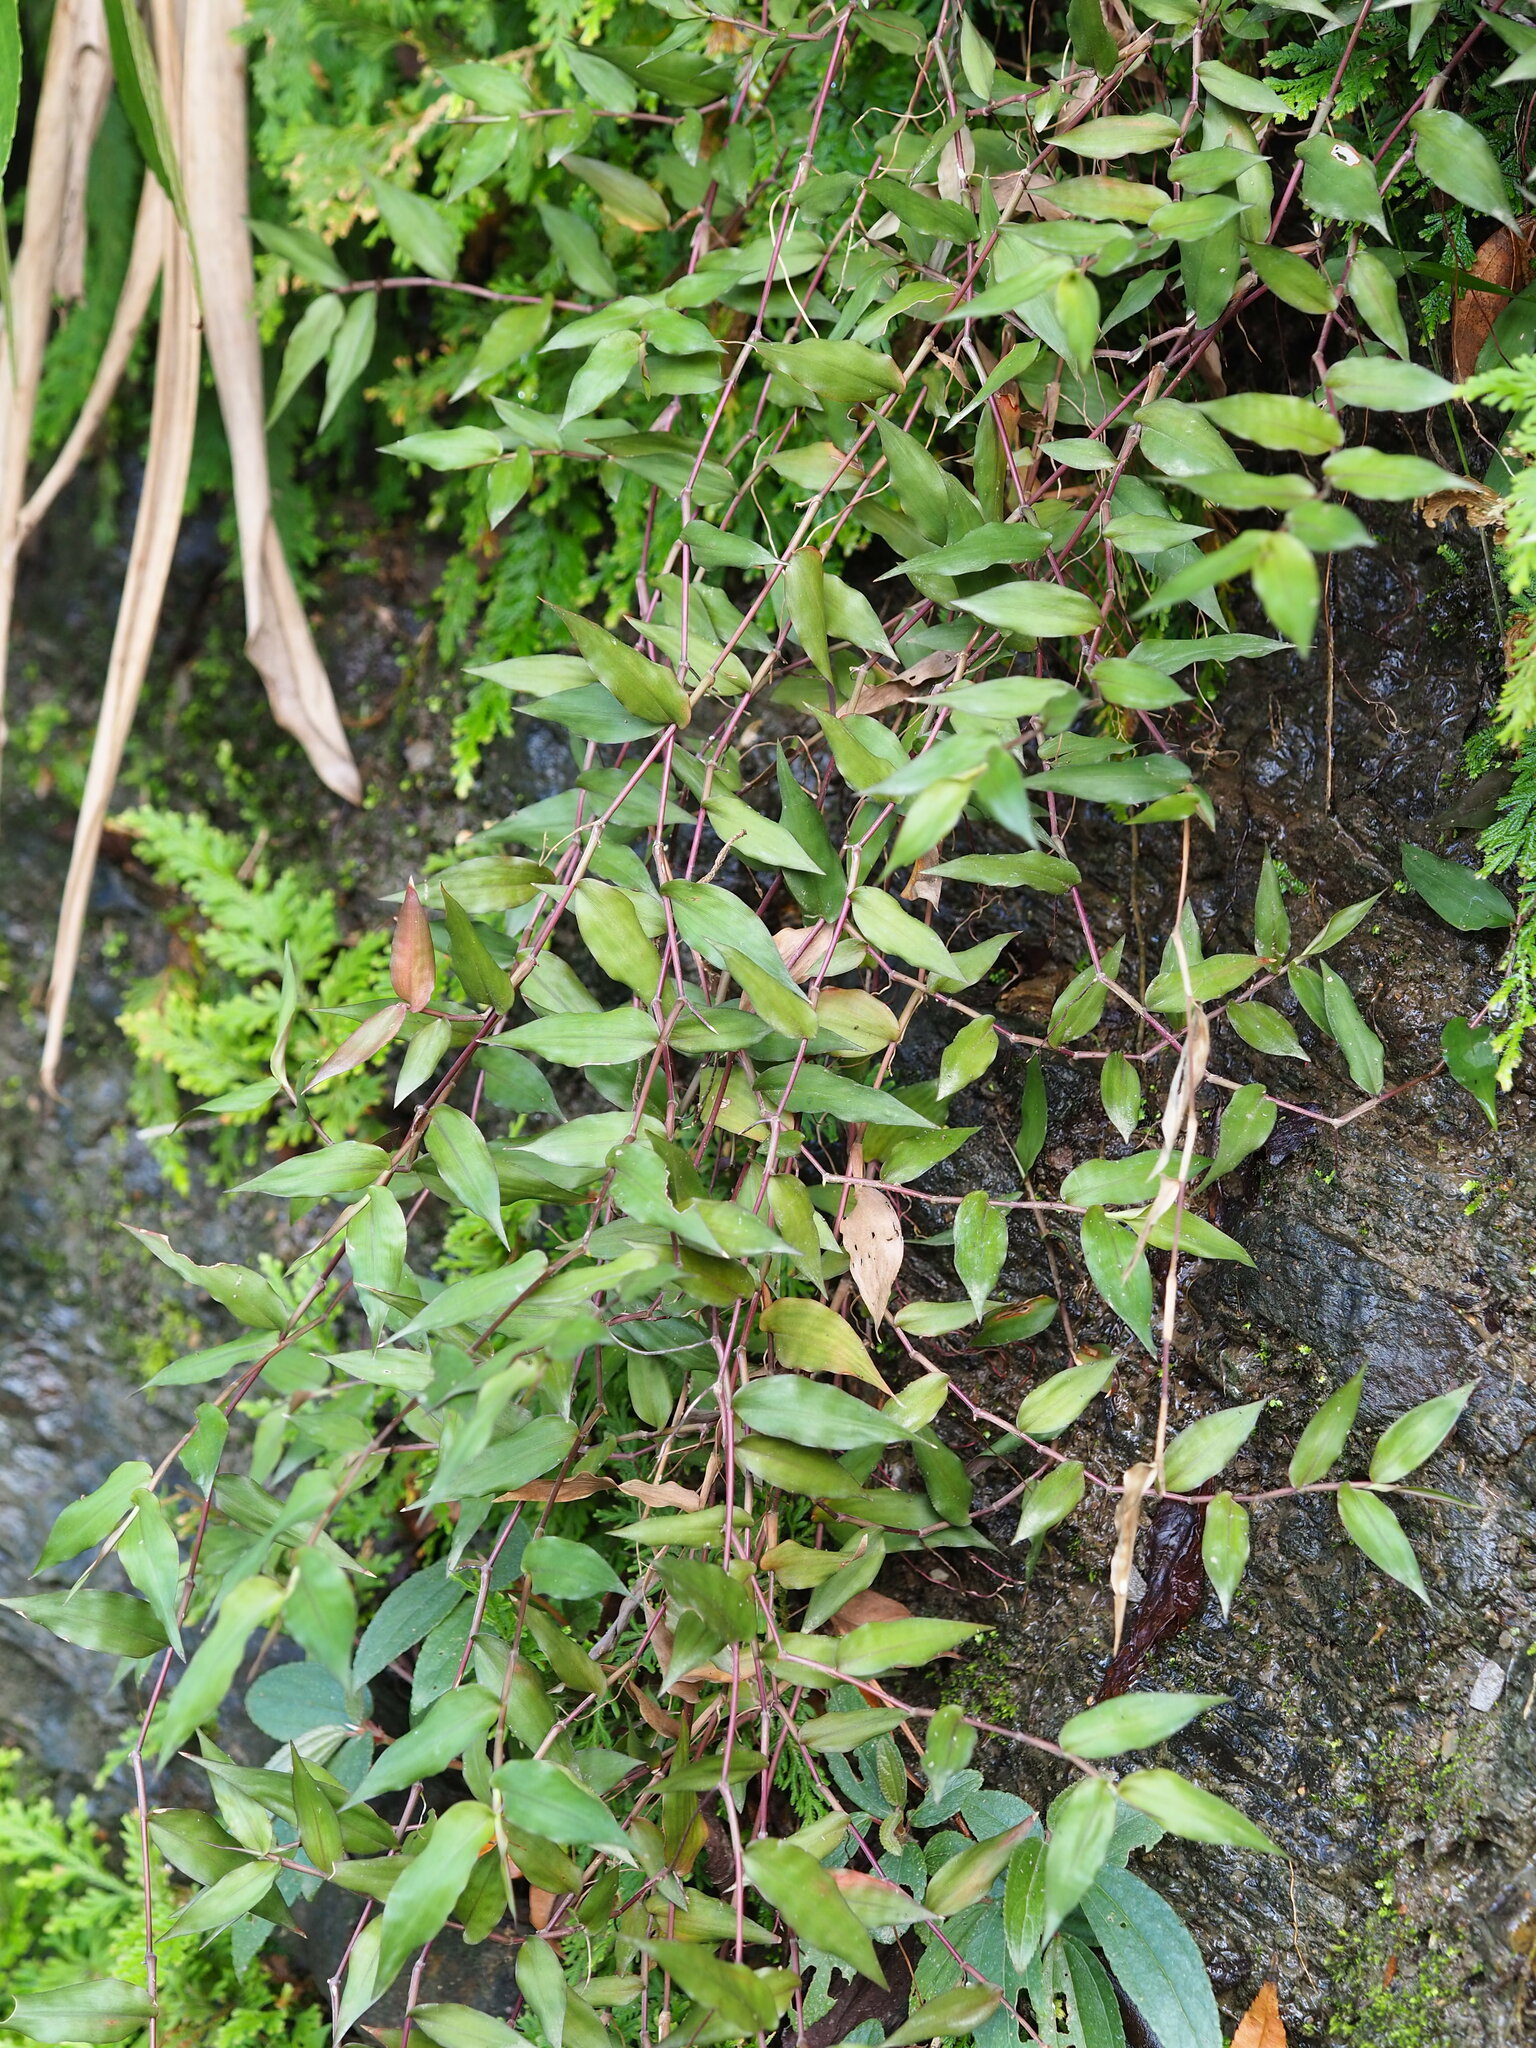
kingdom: Plantae
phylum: Tracheophyta
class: Liliopsida
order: Poales
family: Poaceae
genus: Oplismenus
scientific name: Oplismenus compositus
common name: Running mountain grass
